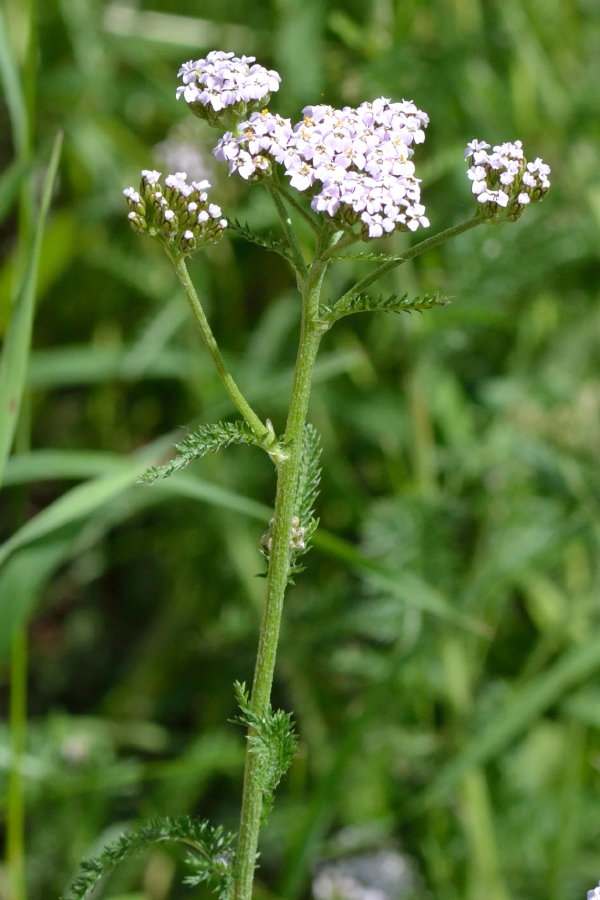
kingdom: Plantae
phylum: Tracheophyta
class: Magnoliopsida
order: Asterales
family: Asteraceae
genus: Achillea
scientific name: Achillea millefolium
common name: Yarrow
